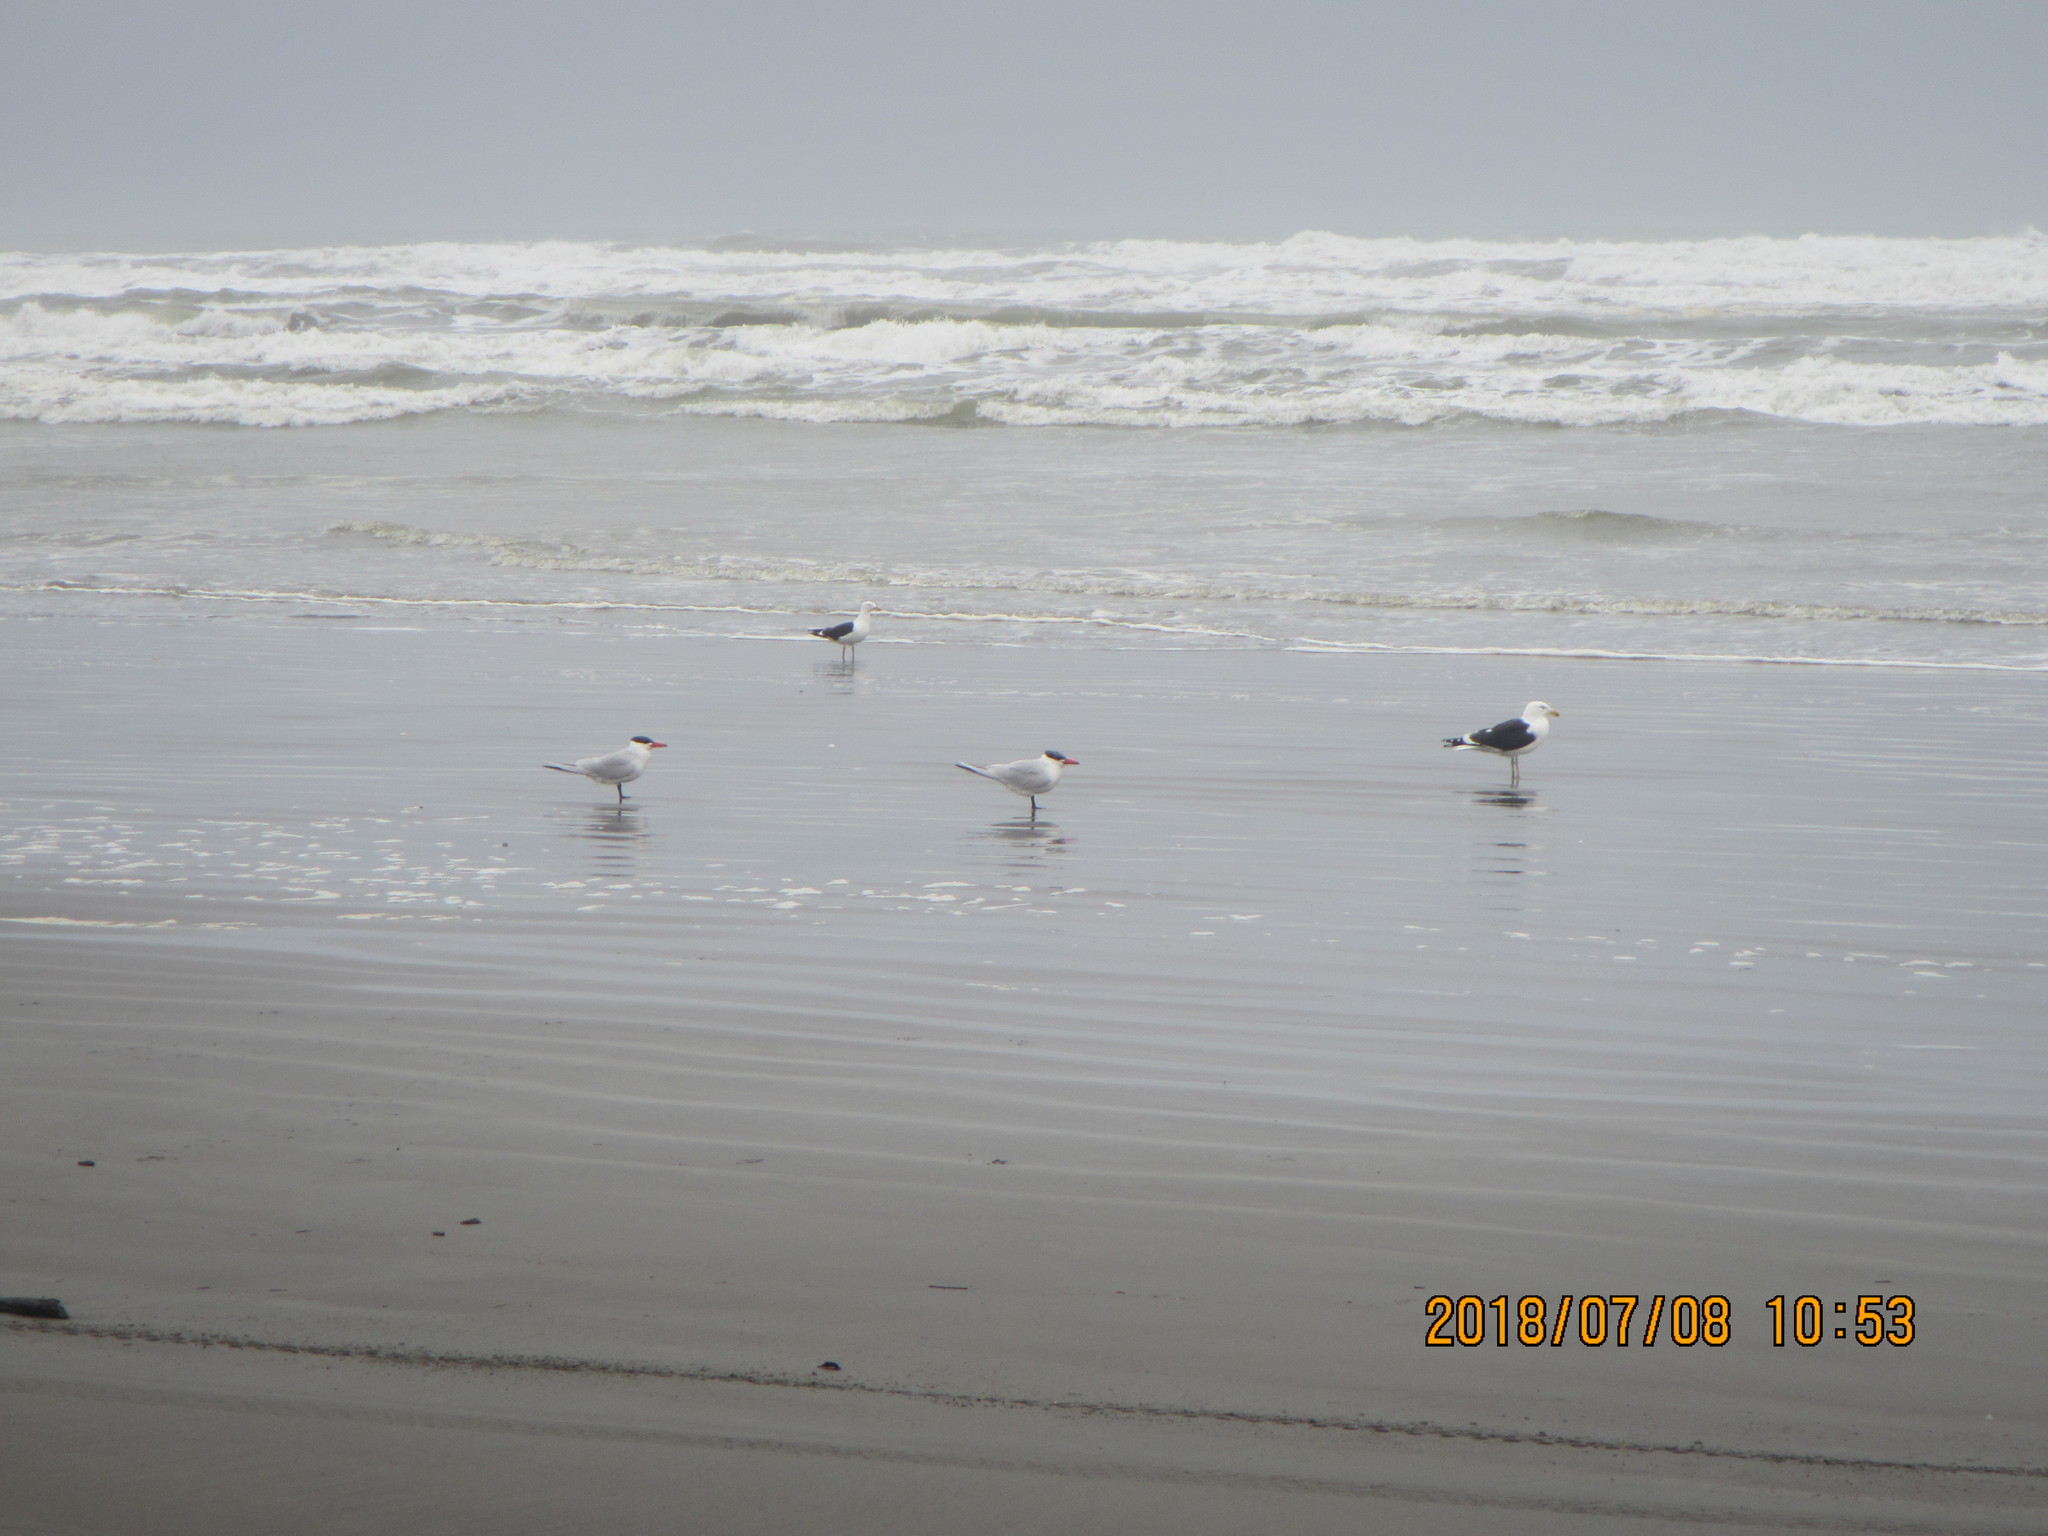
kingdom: Animalia
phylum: Chordata
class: Aves
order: Charadriiformes
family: Laridae
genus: Hydroprogne
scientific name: Hydroprogne caspia
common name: Caspian tern
